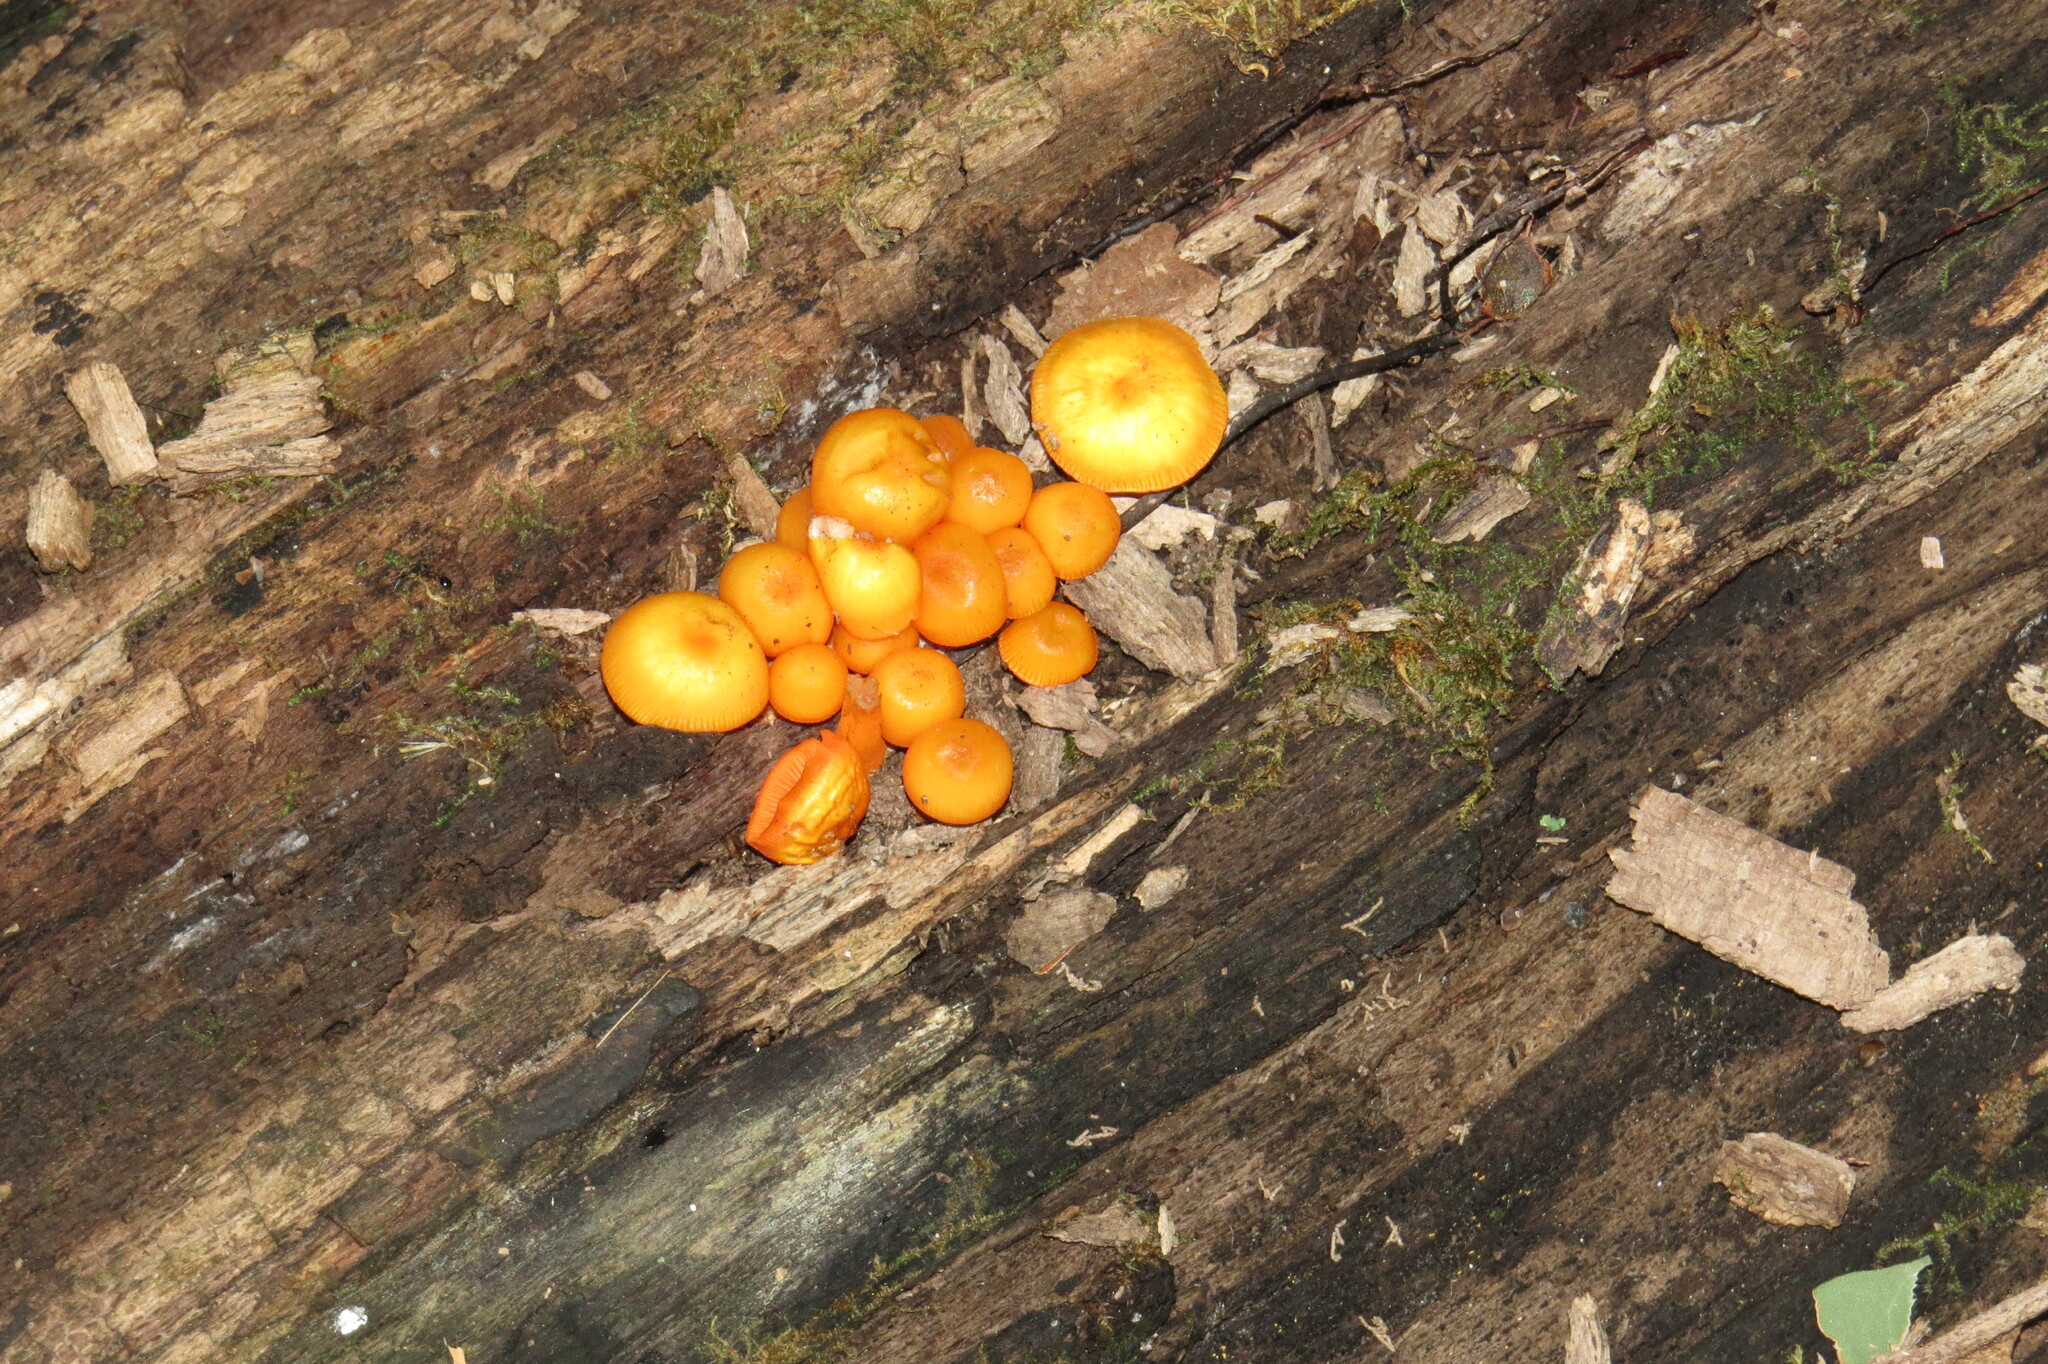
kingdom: Fungi
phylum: Basidiomycota
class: Agaricomycetes
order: Agaricales
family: Mycenaceae
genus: Mycena
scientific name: Mycena leaiana
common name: Orange mycena
